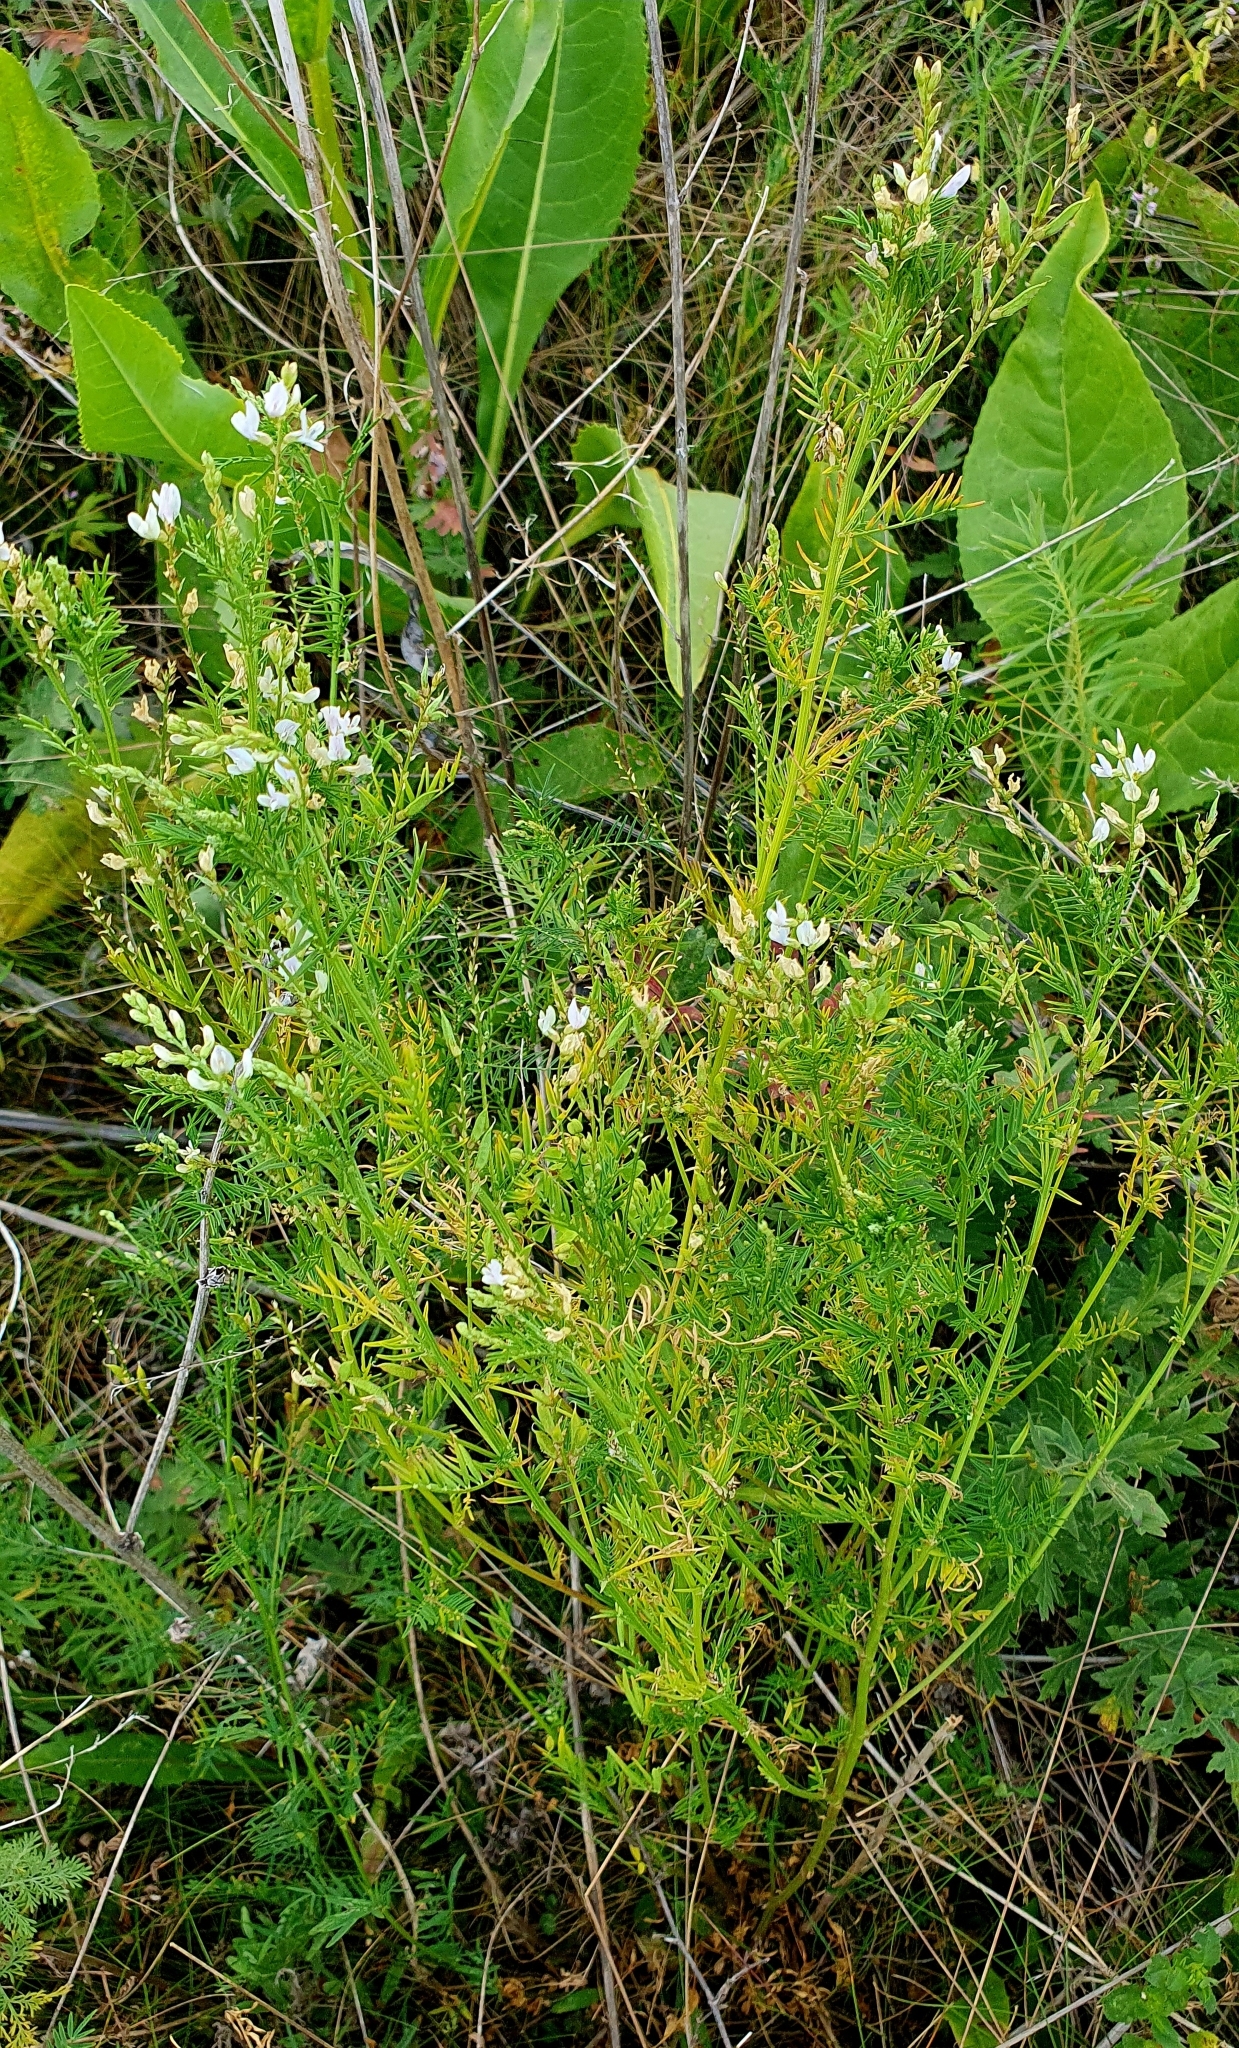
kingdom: Plantae
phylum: Tracheophyta
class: Magnoliopsida
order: Fabales
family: Fabaceae
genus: Astragalus
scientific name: Astragalus sulcatus
